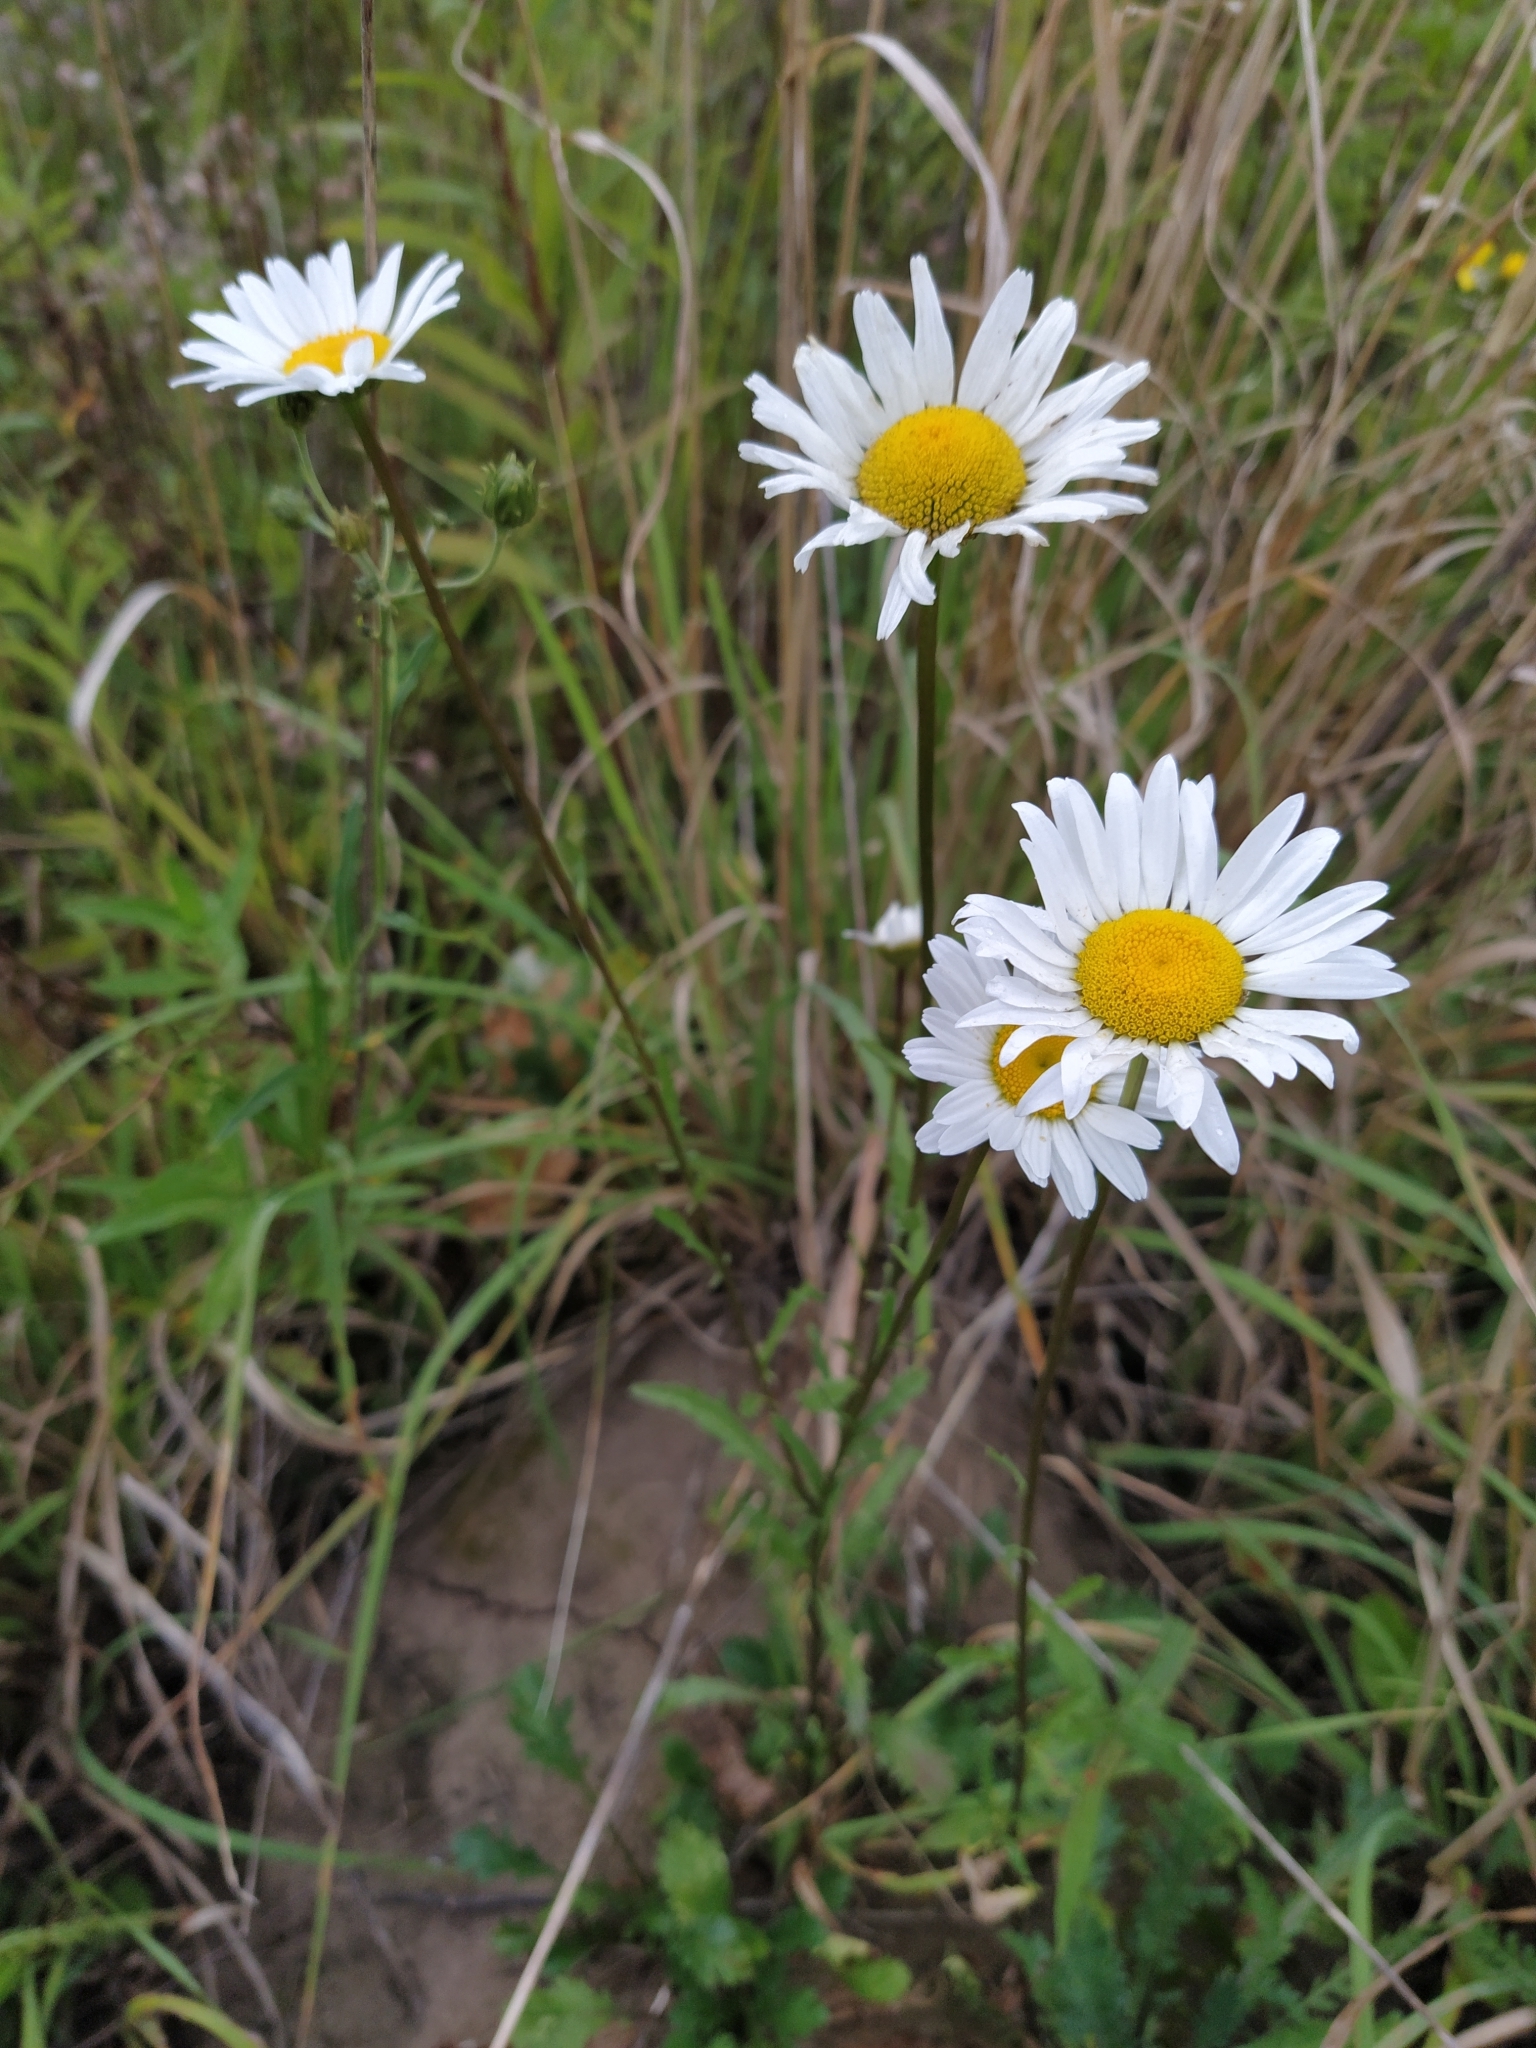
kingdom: Plantae
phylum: Tracheophyta
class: Magnoliopsida
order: Asterales
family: Asteraceae
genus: Leucanthemum
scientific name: Leucanthemum vulgare
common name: Oxeye daisy
